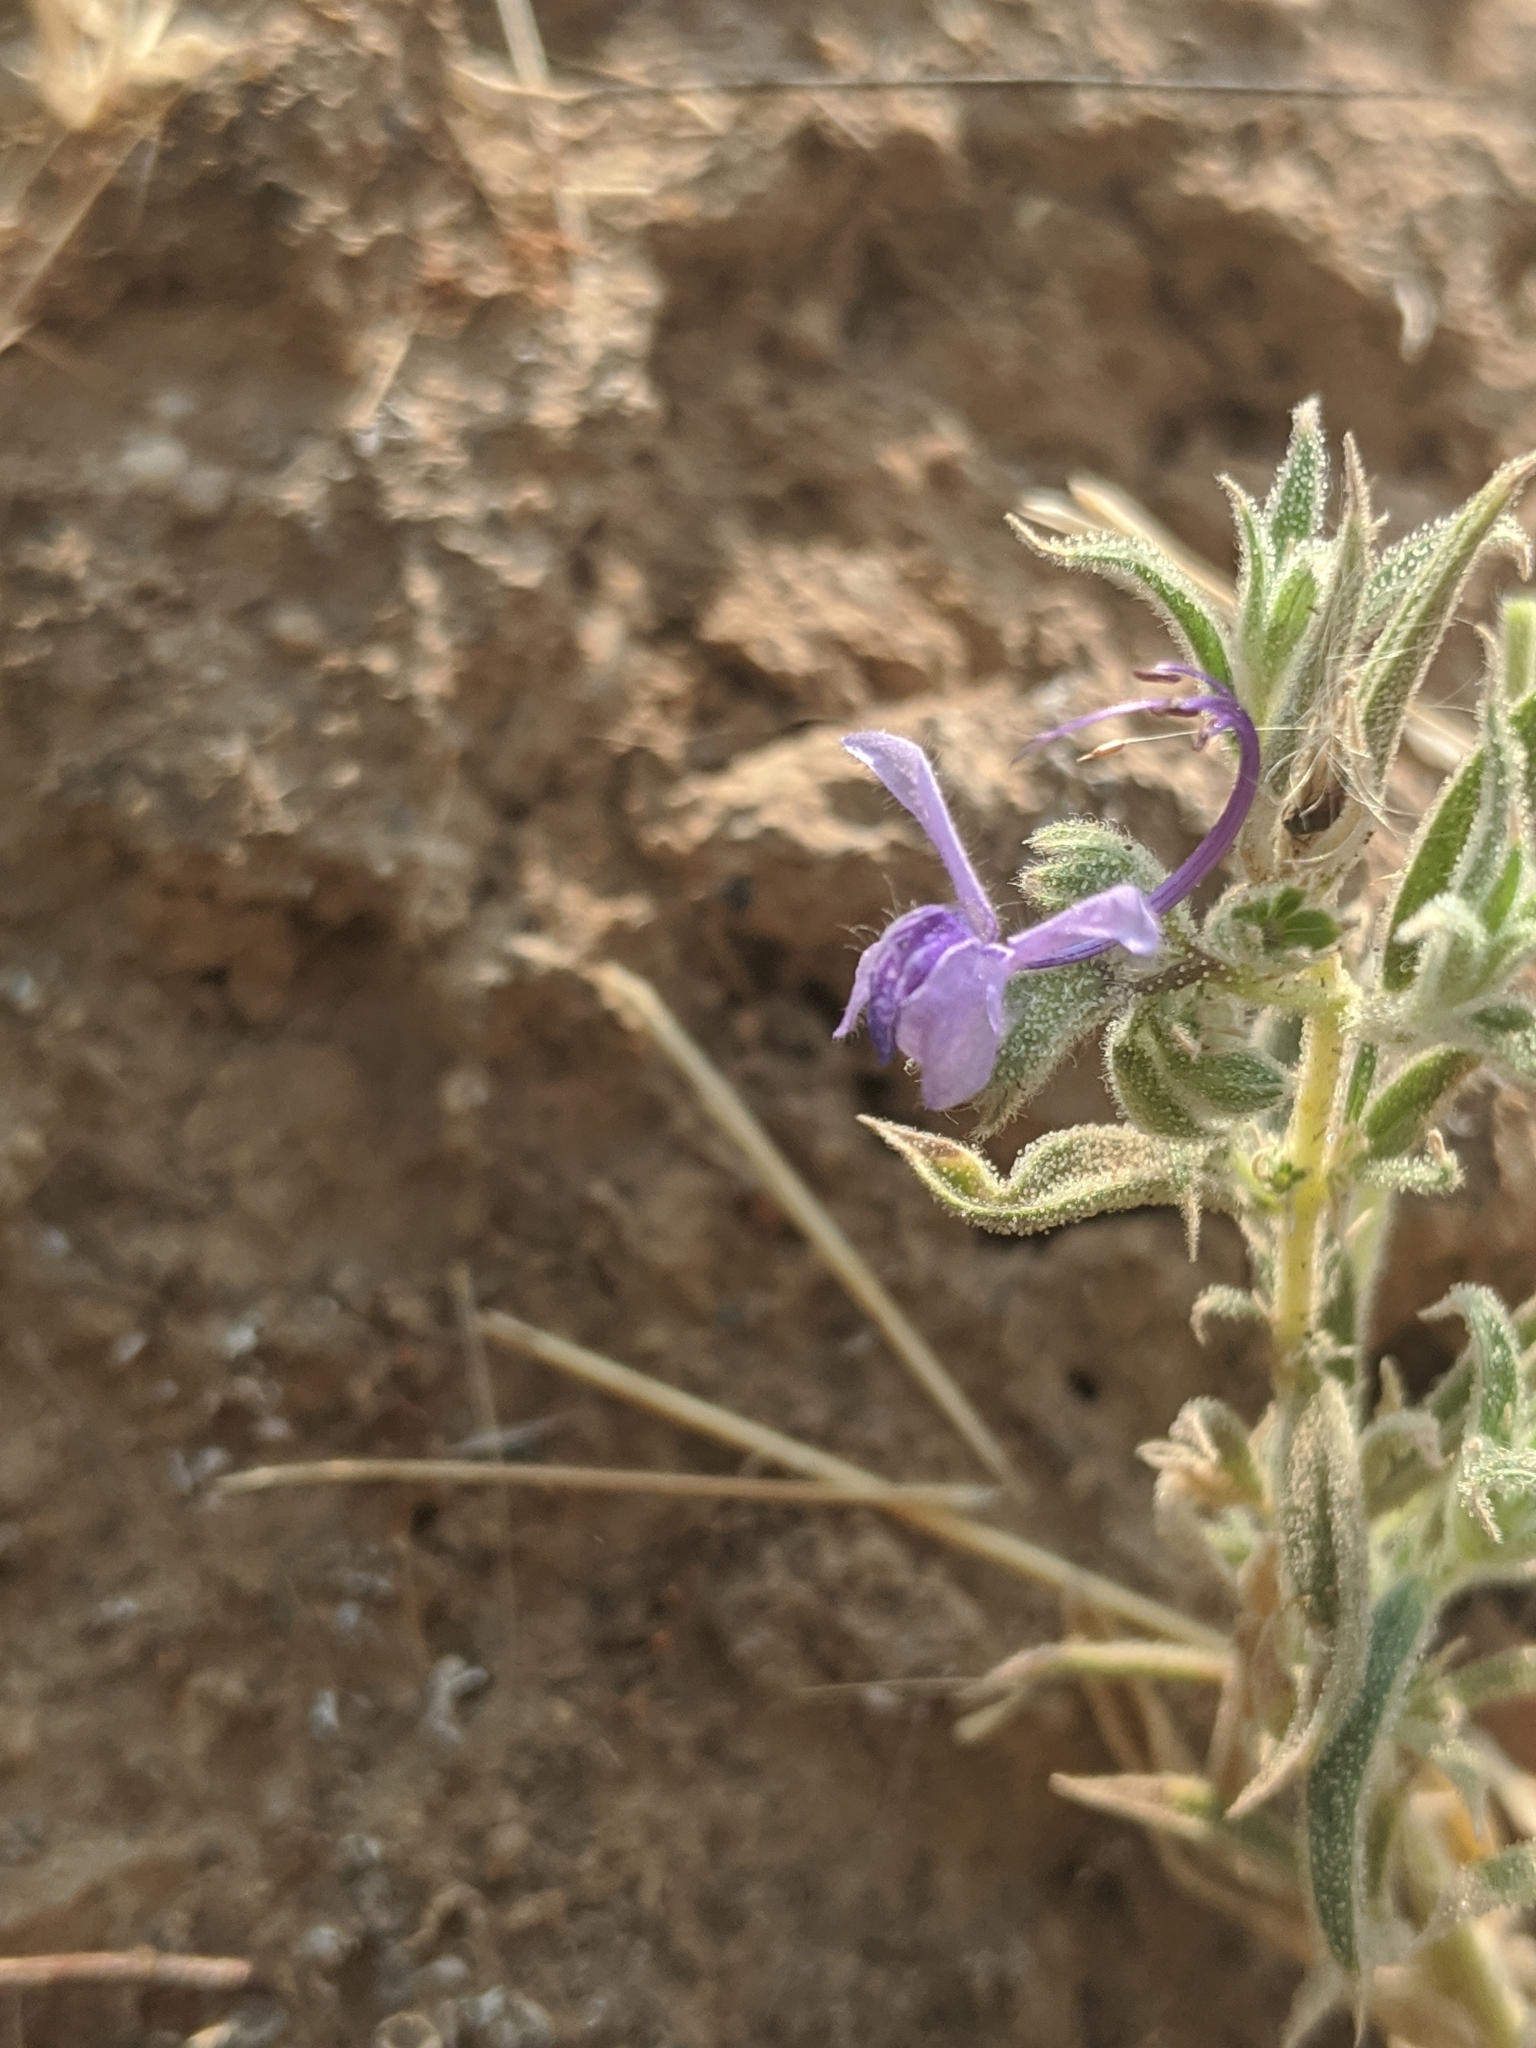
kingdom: Plantae
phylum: Tracheophyta
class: Magnoliopsida
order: Lamiales
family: Lamiaceae
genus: Trichostema
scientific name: Trichostema lanceolatum
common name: Vinegar-weed
